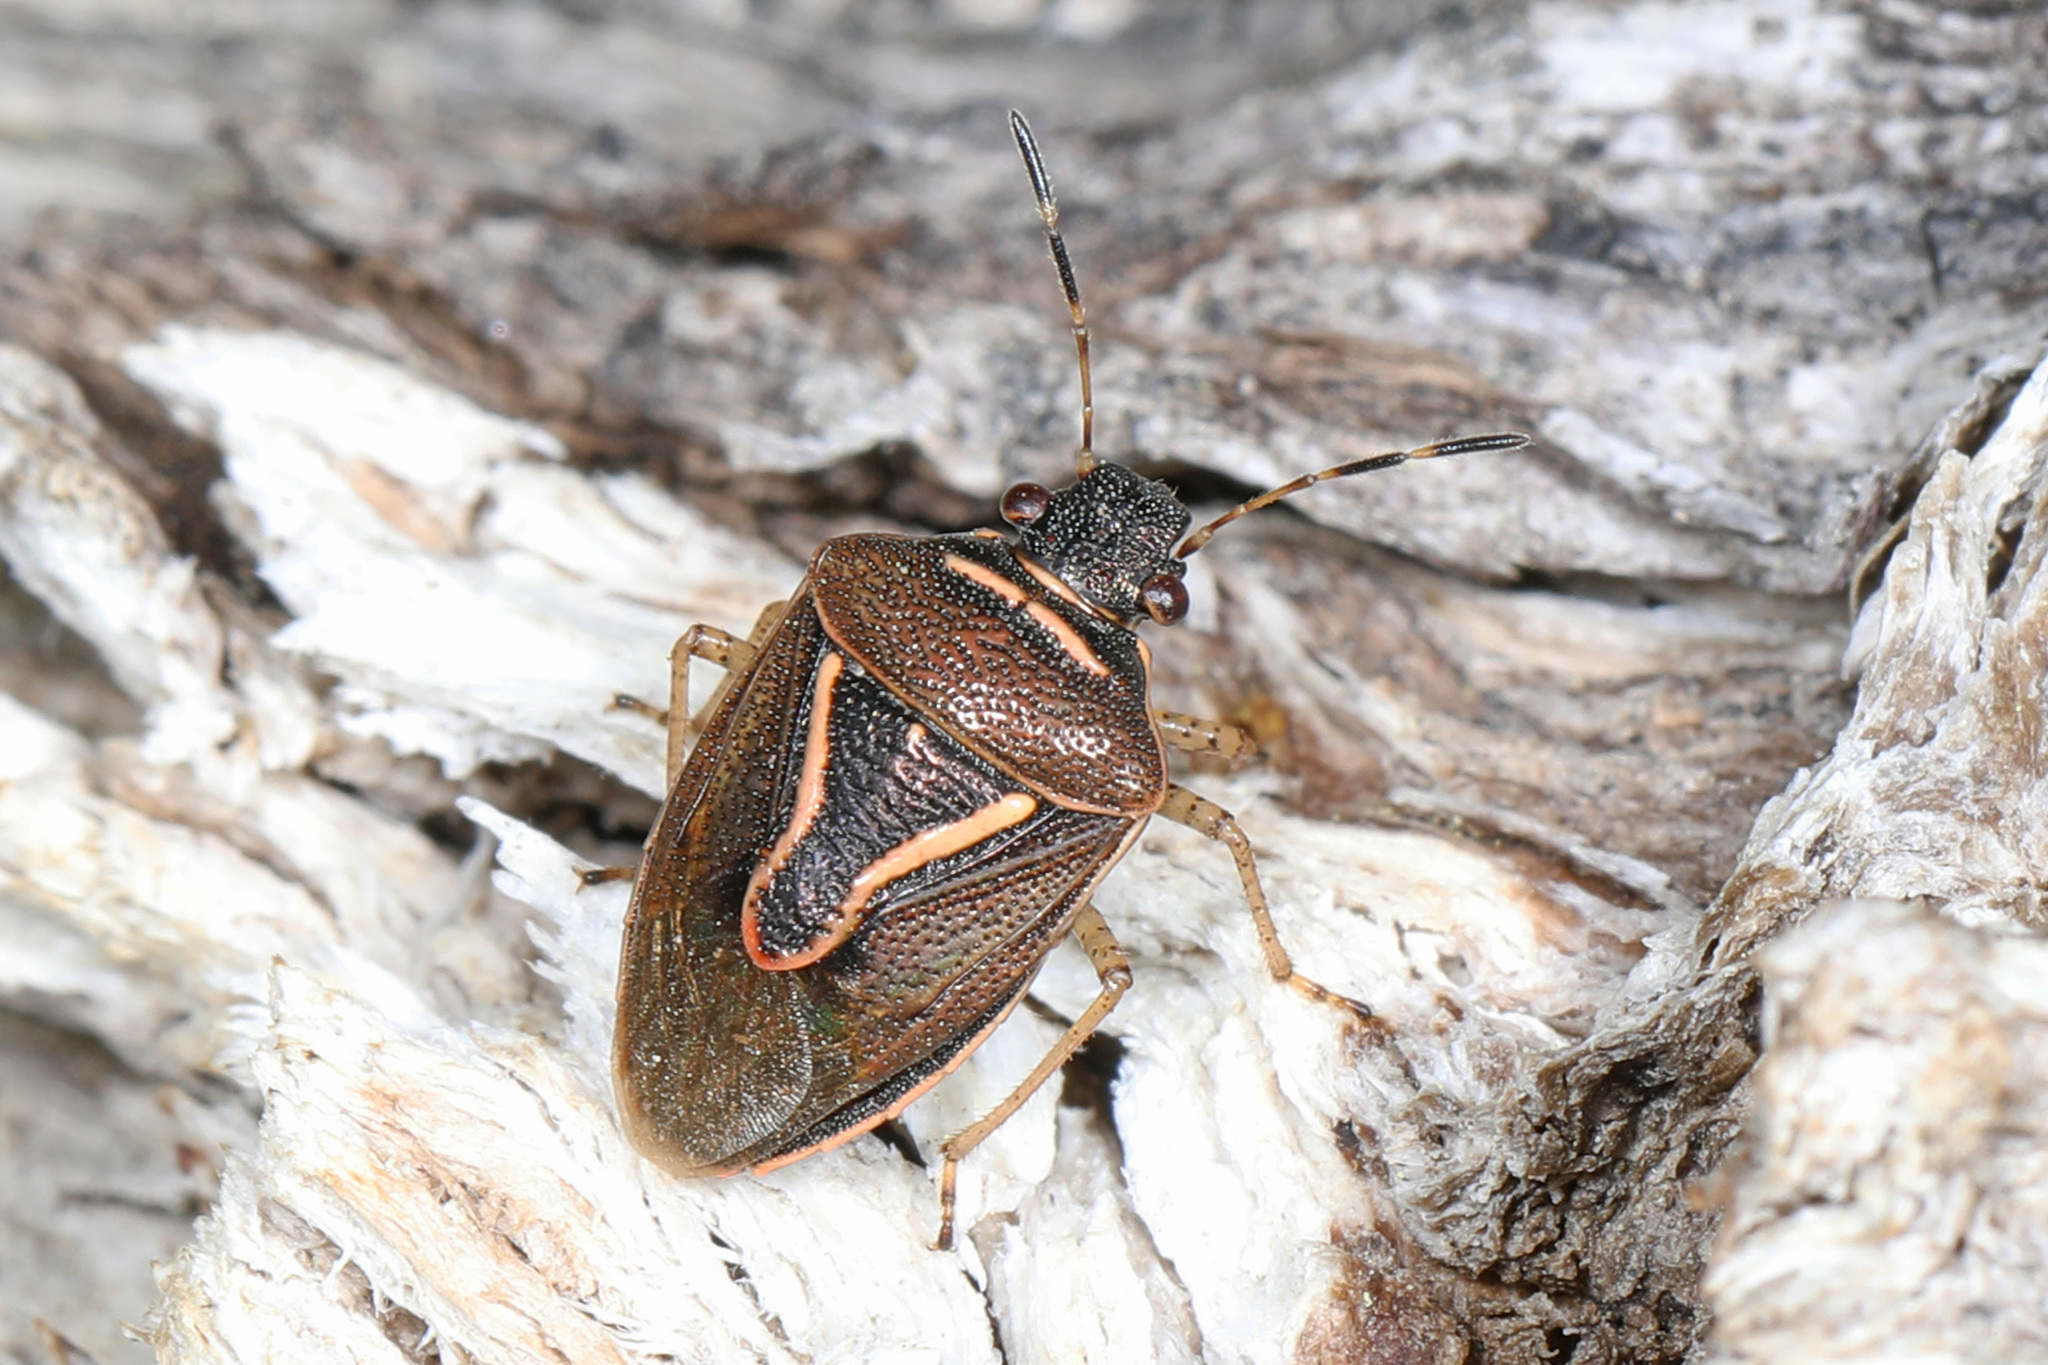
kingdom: Animalia
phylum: Arthropoda
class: Insecta
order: Hemiptera
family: Pentatomidae
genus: Mormidea
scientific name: Mormidea lugens
